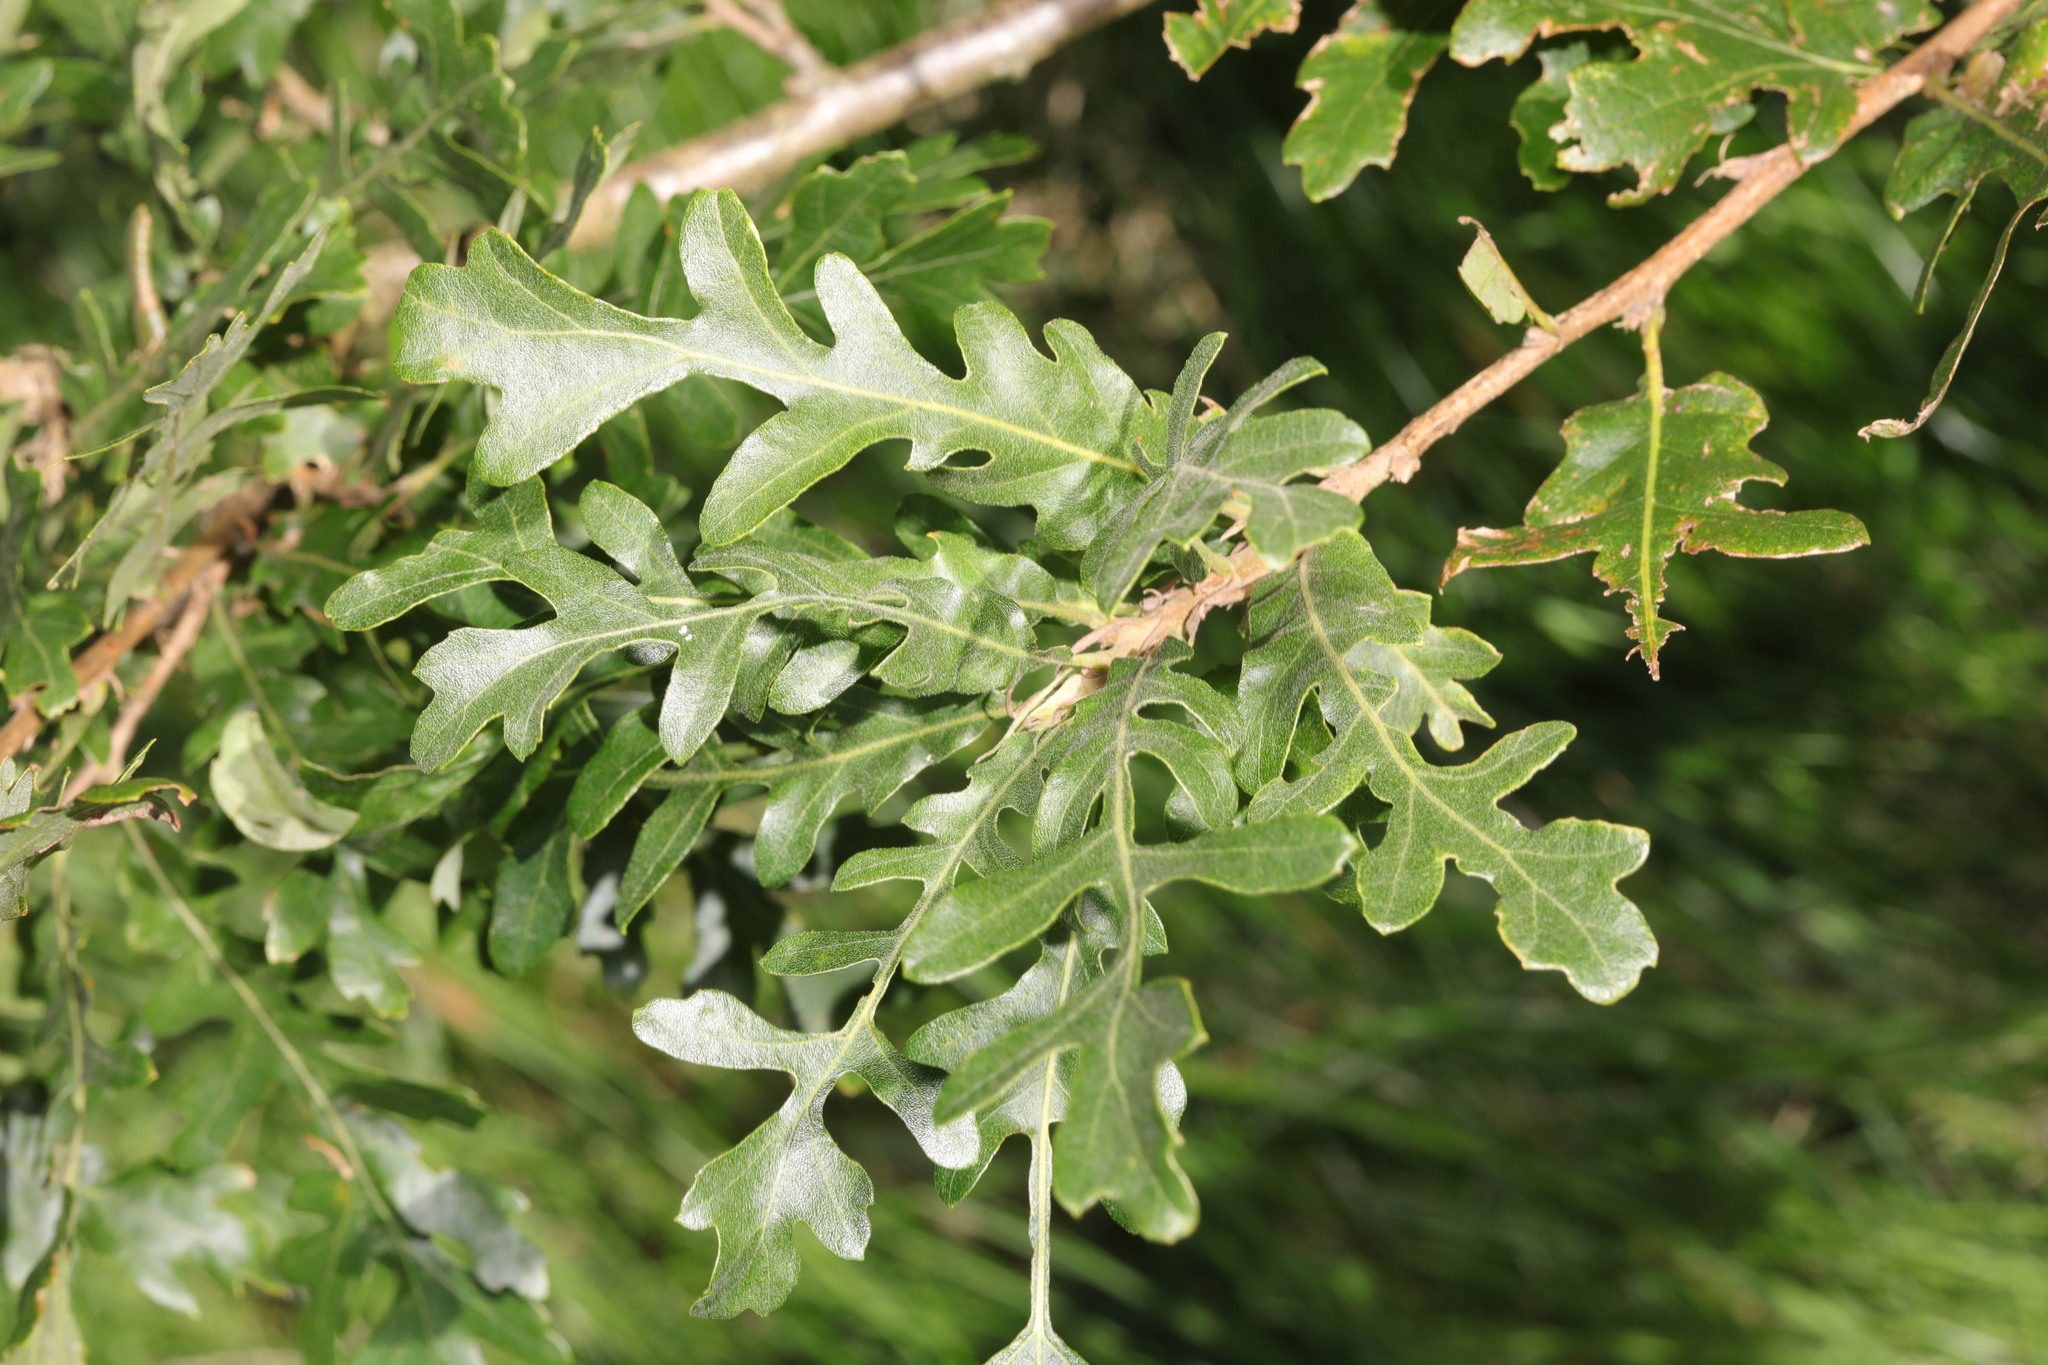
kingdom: Plantae
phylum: Tracheophyta
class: Magnoliopsida
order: Fagales
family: Fagaceae
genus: Quercus
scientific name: Quercus cerris
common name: Turkey oak
